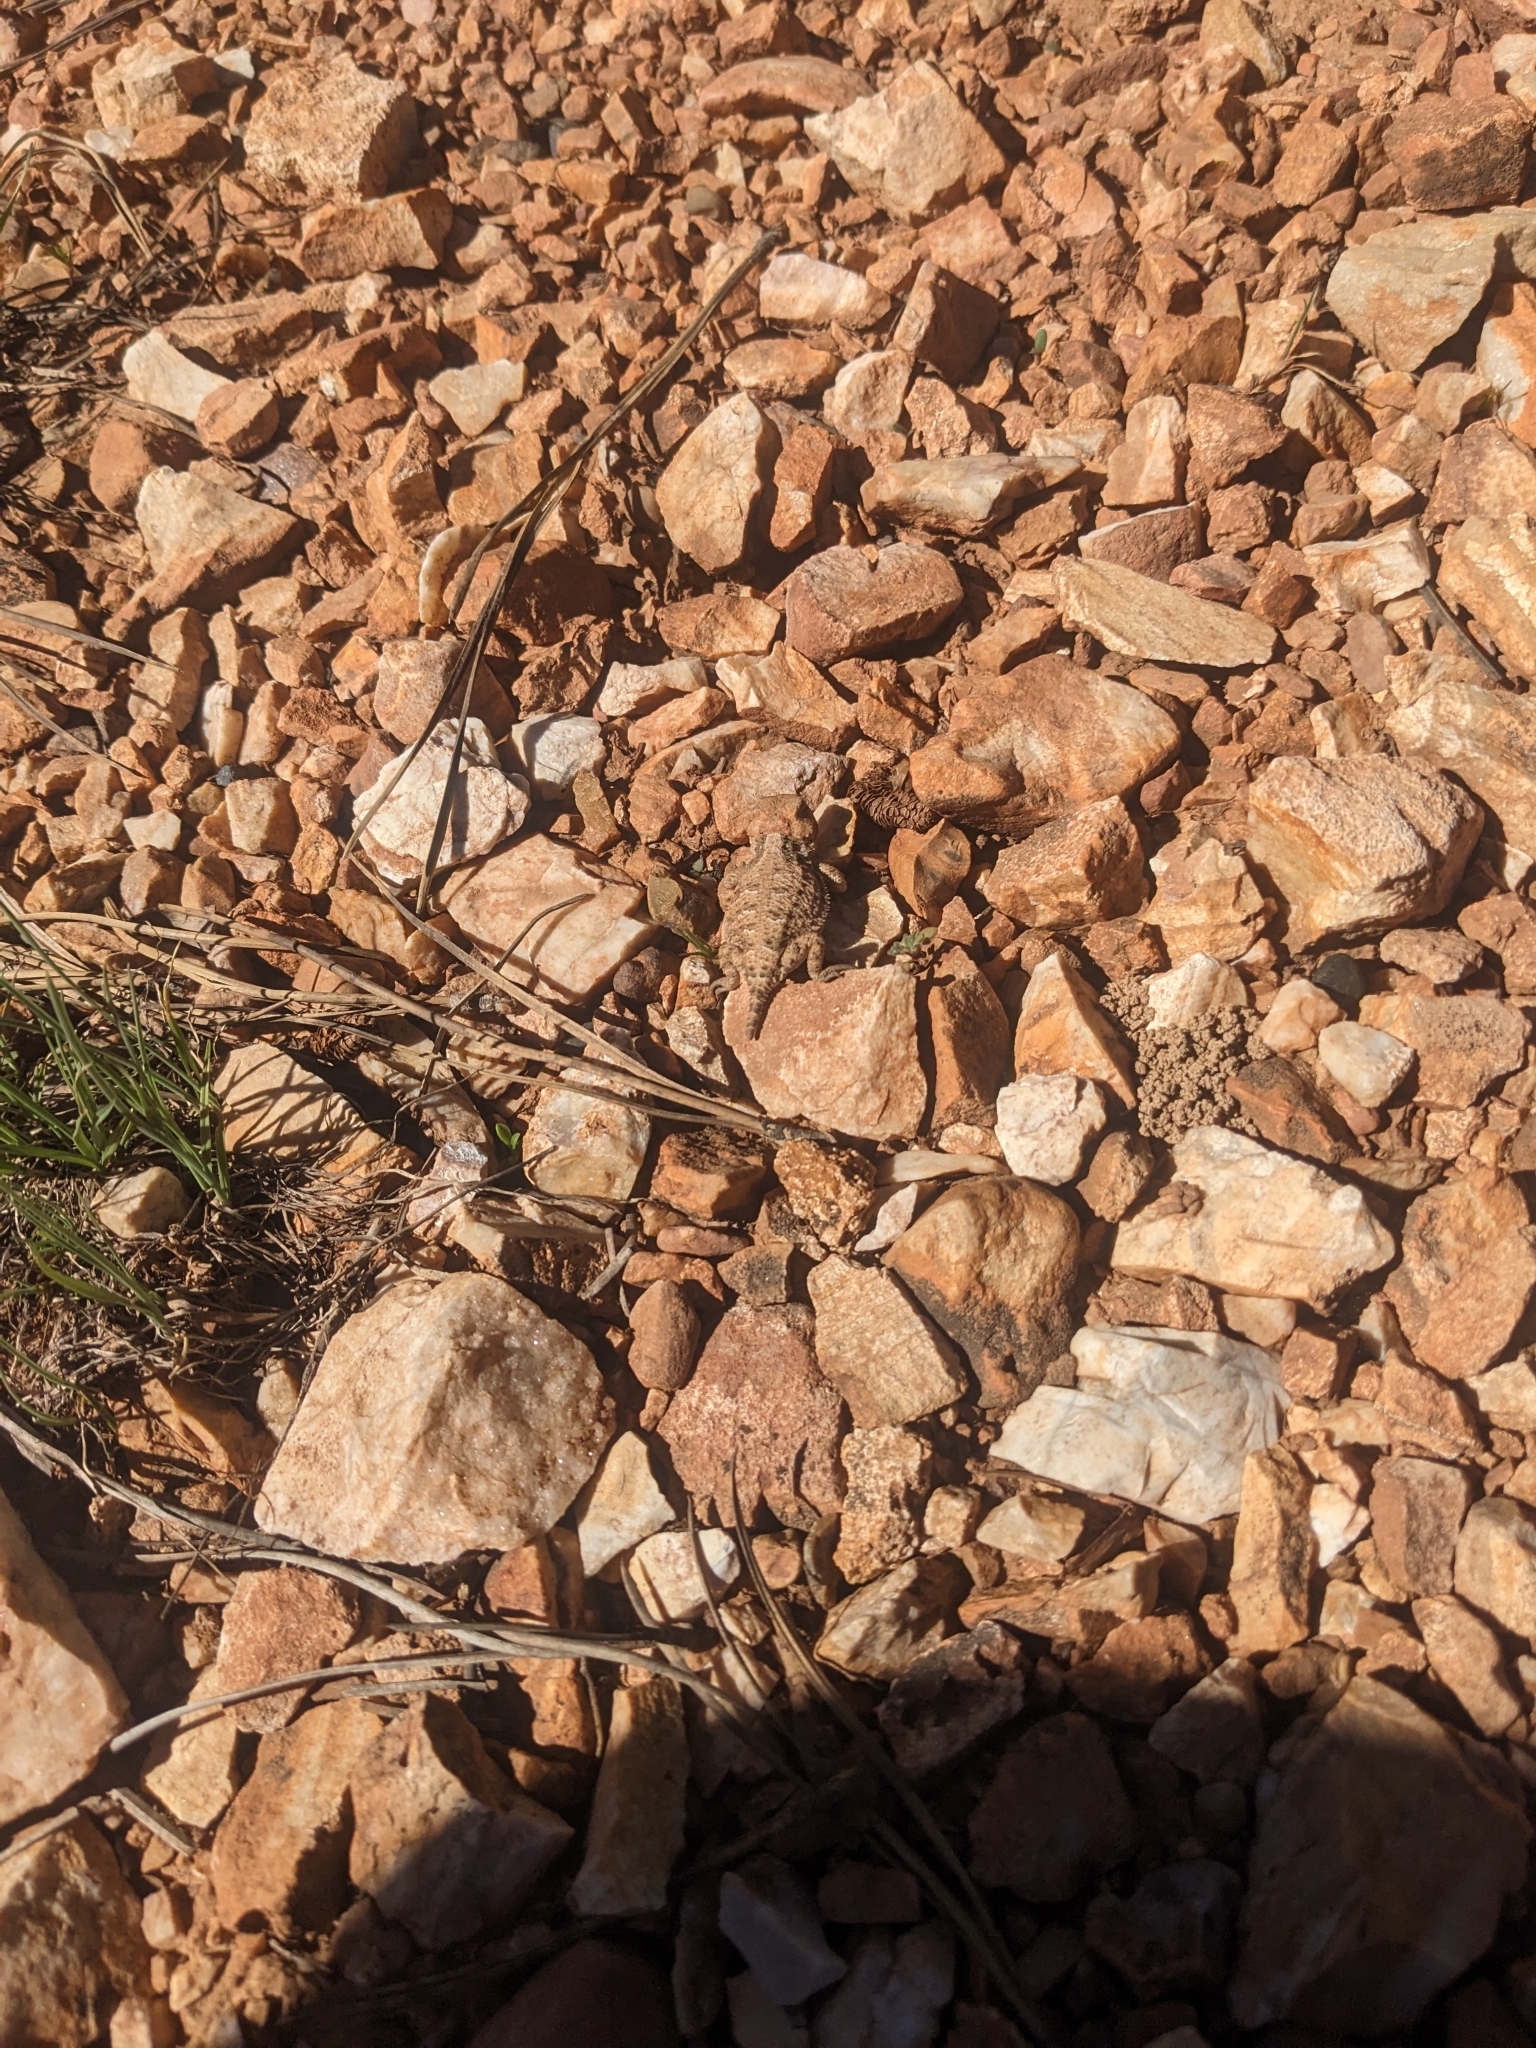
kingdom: Animalia
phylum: Chordata
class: Squamata
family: Phrynosomatidae
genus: Phrynosoma
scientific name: Phrynosoma hernandesi
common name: Greater short-horned lizard
